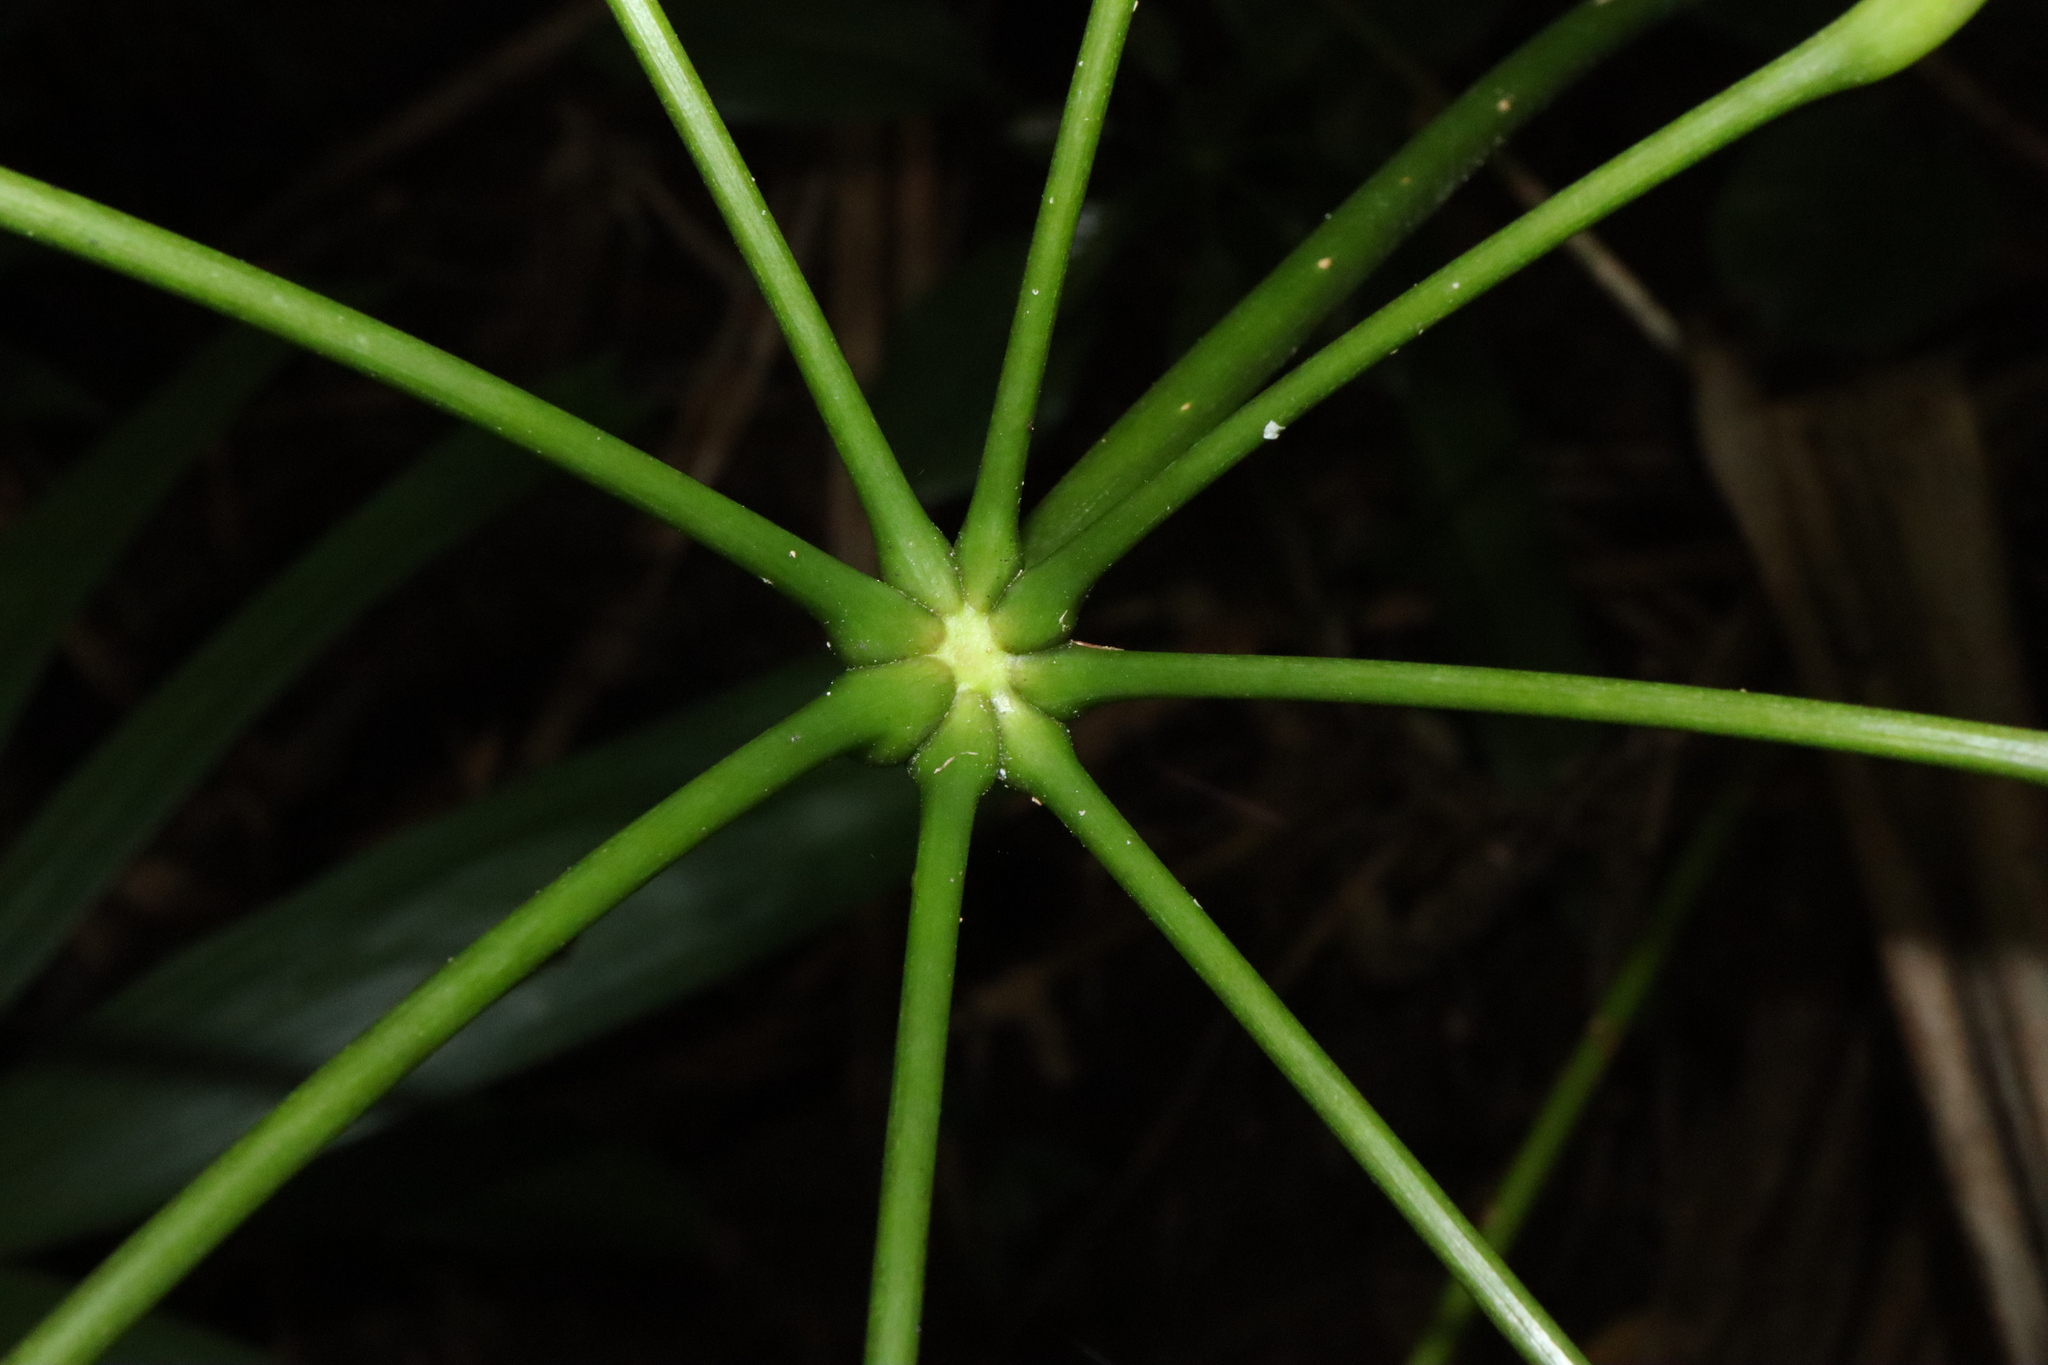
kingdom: Plantae
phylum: Tracheophyta
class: Magnoliopsida
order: Apiales
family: Araliaceae
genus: Heptapleurum
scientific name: Heptapleurum actinophyllum
